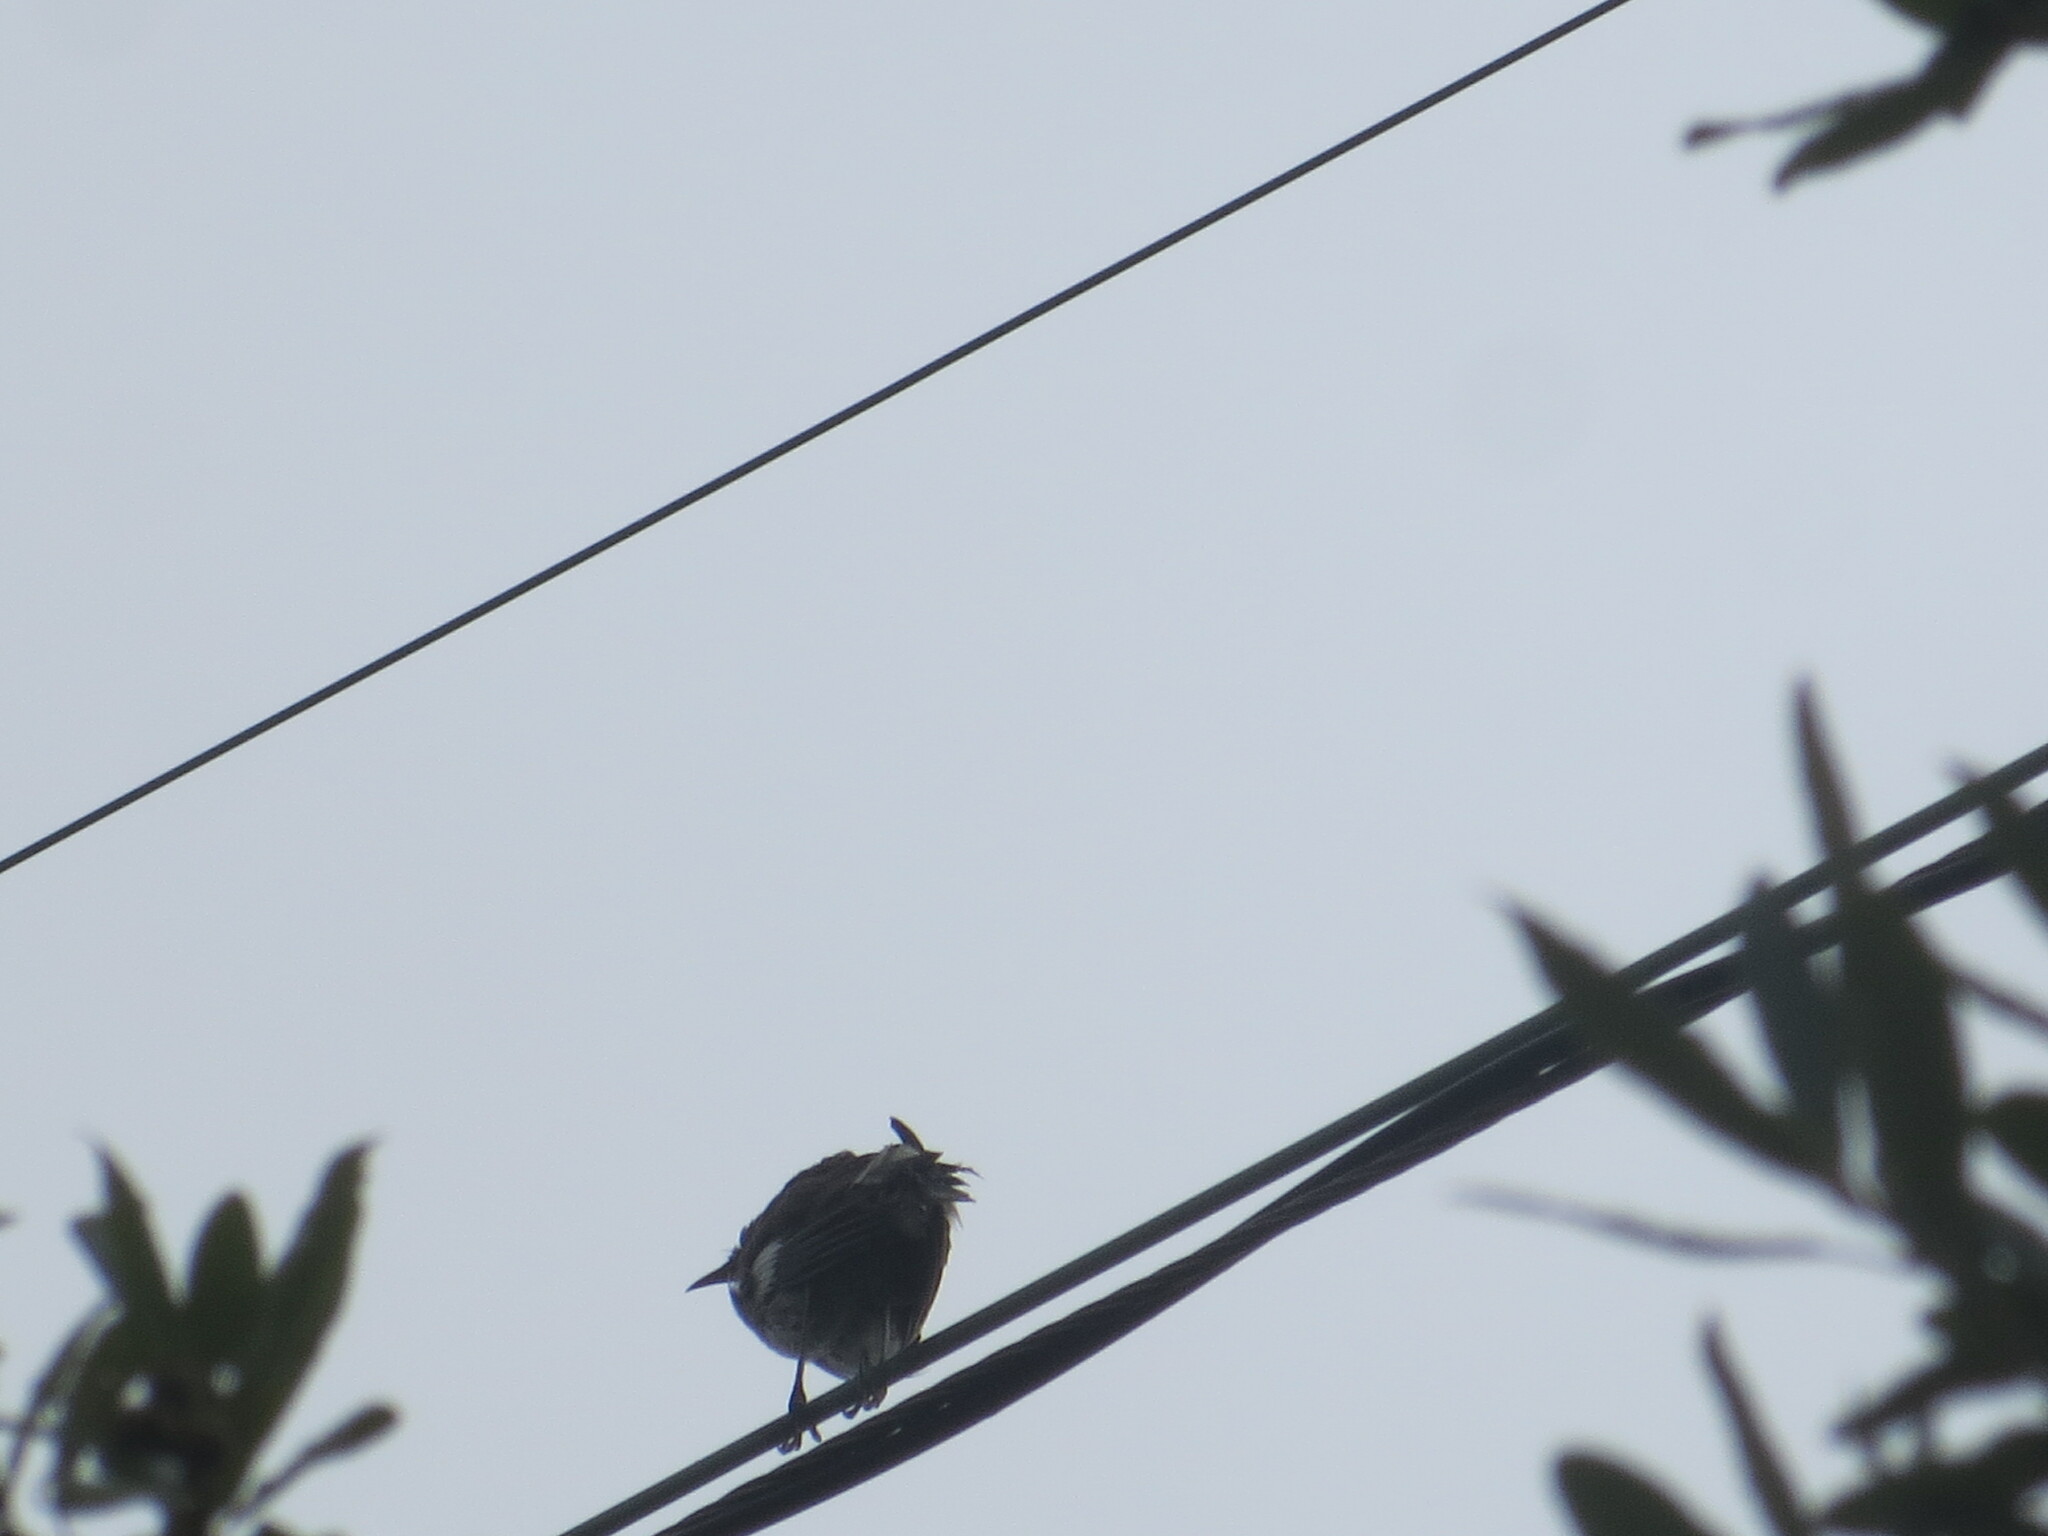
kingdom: Animalia
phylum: Chordata
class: Aves
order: Passeriformes
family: Mimidae
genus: Mimus
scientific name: Mimus polyglottos
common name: Northern mockingbird
